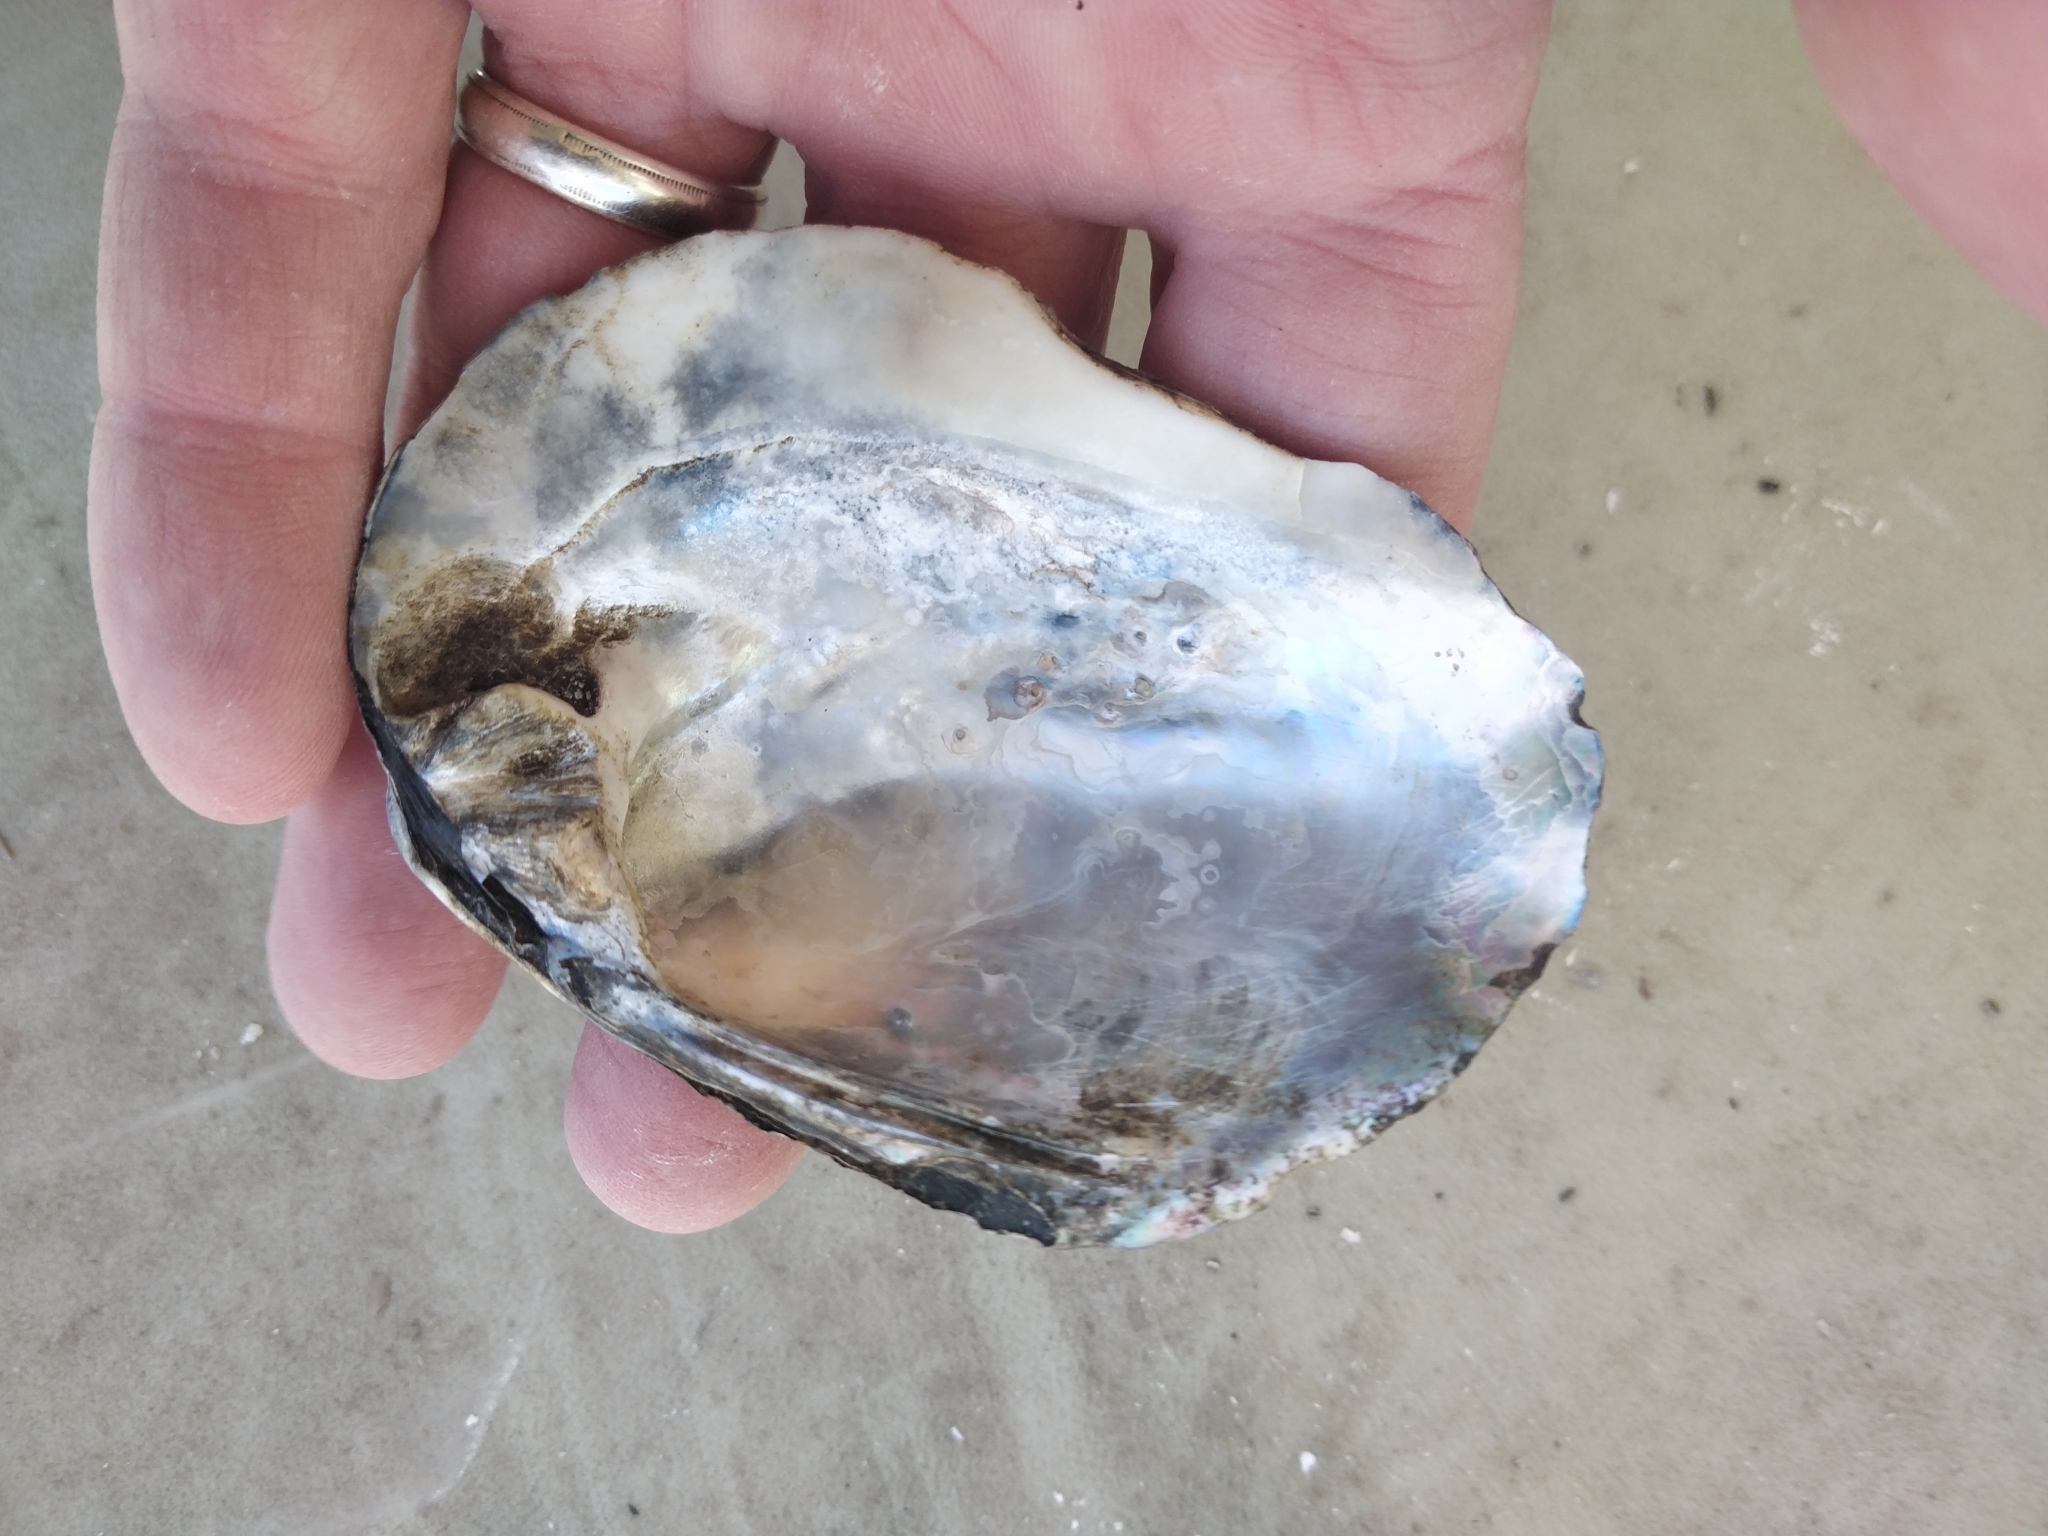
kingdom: Animalia
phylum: Mollusca
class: Bivalvia
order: Unionida
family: Unionidae
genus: Amblema
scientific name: Amblema plicata
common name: Threeridge
